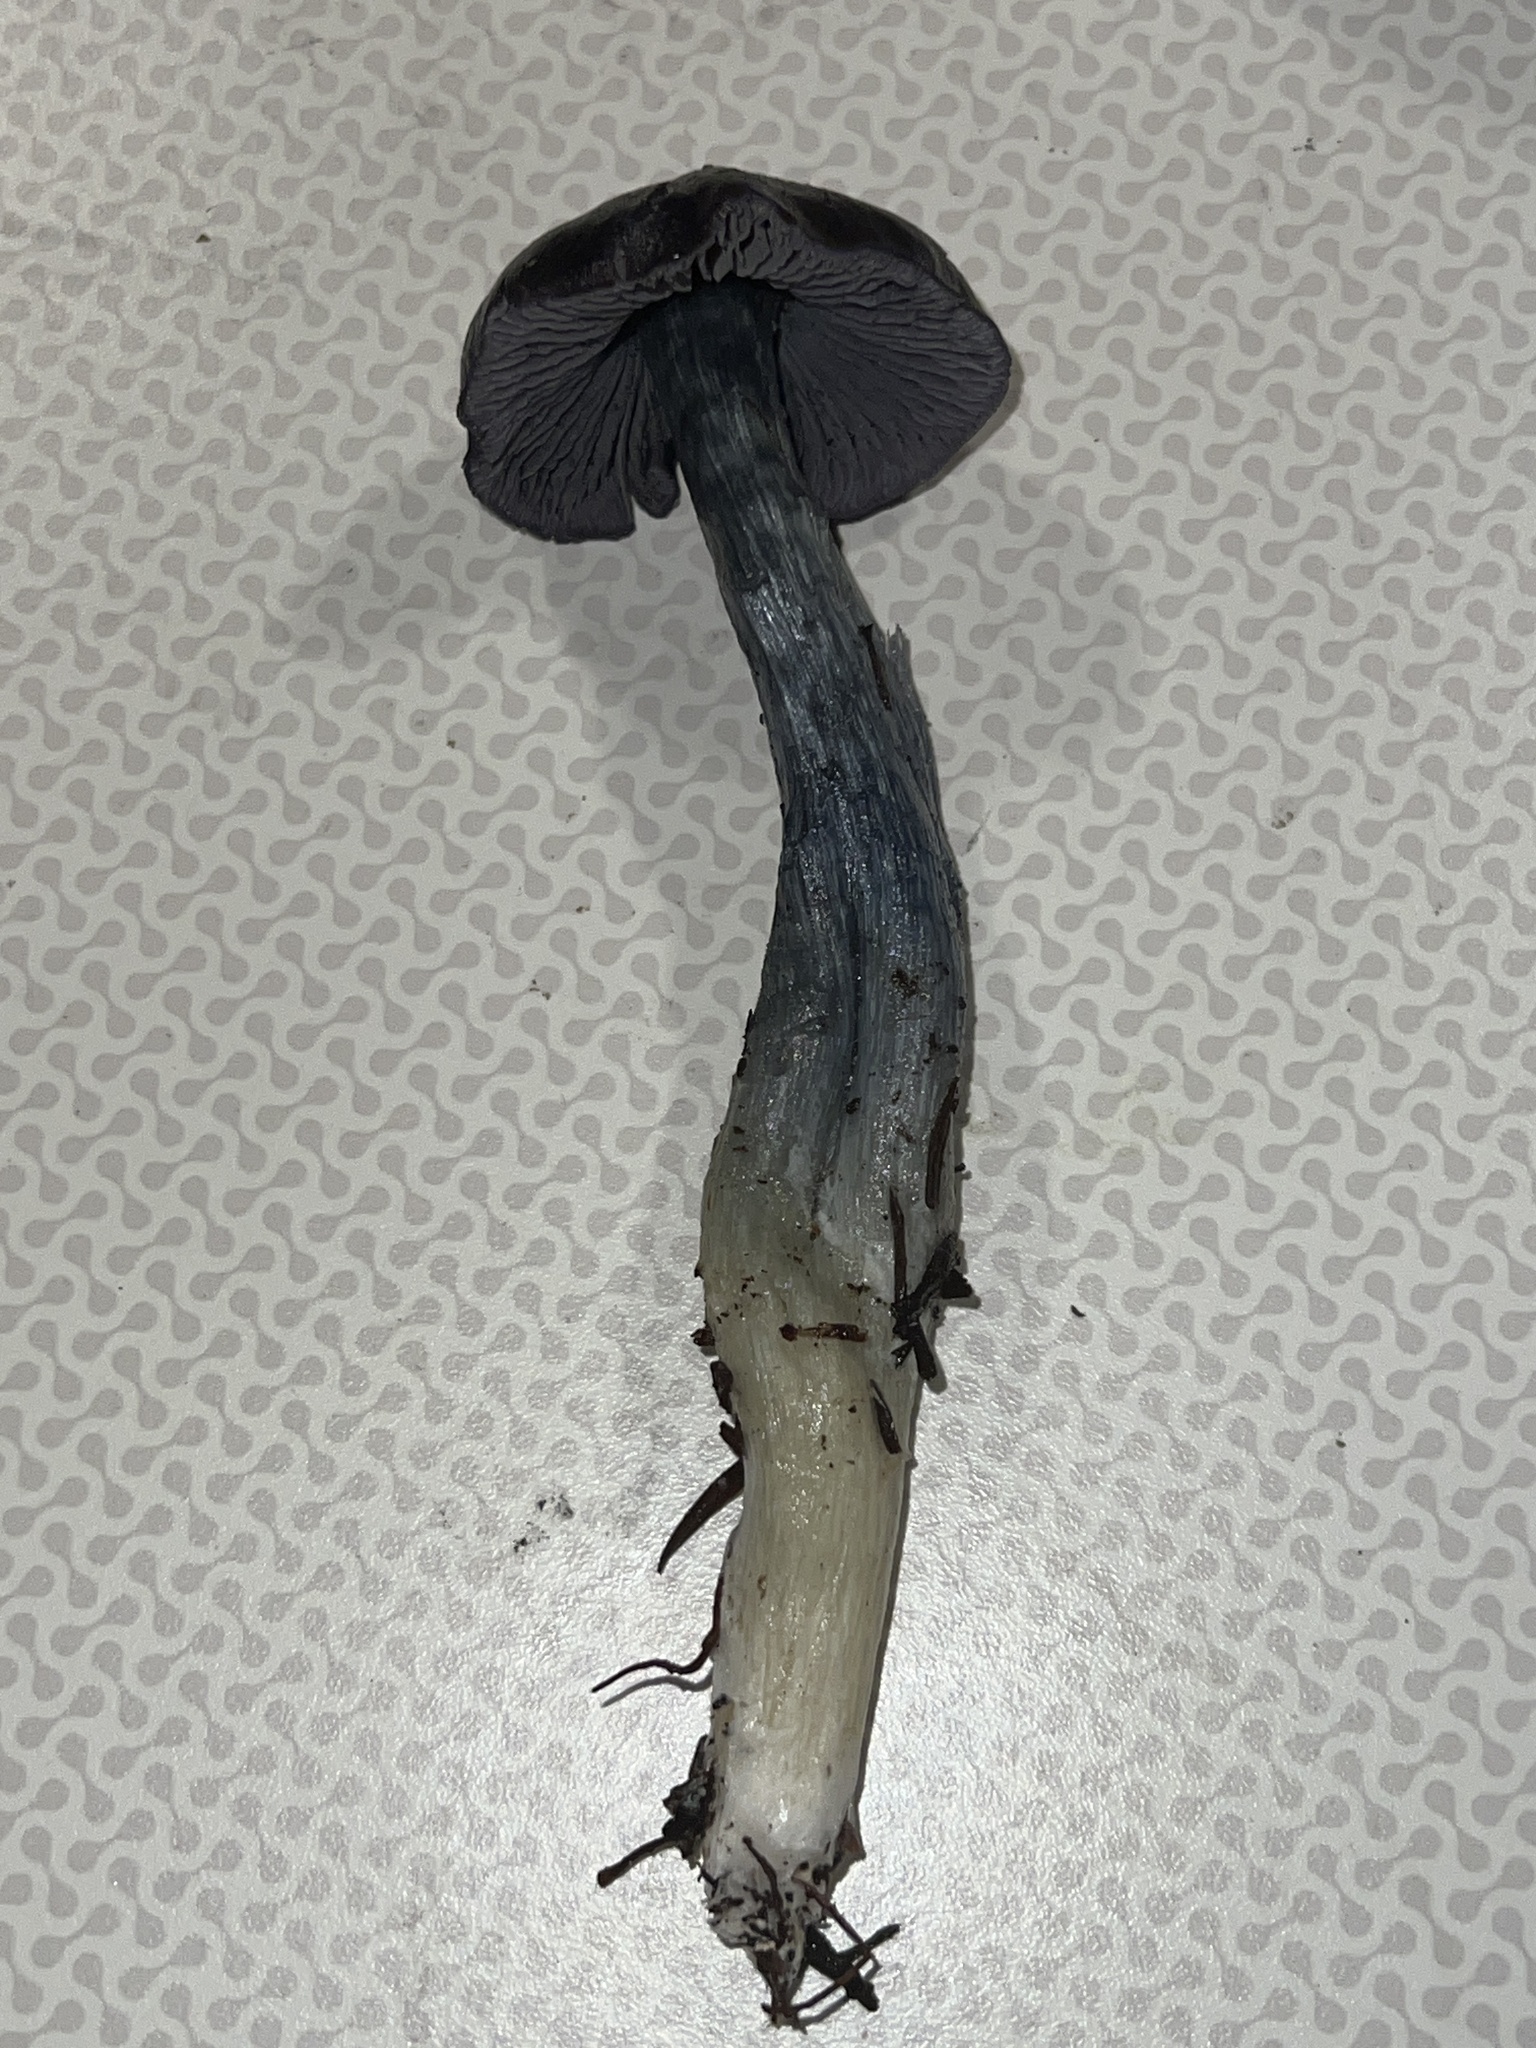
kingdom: Fungi
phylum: Basidiomycota
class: Agaricomycetes
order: Agaricales
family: Entolomataceae
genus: Entocybe
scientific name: Entocybe trachyospora
